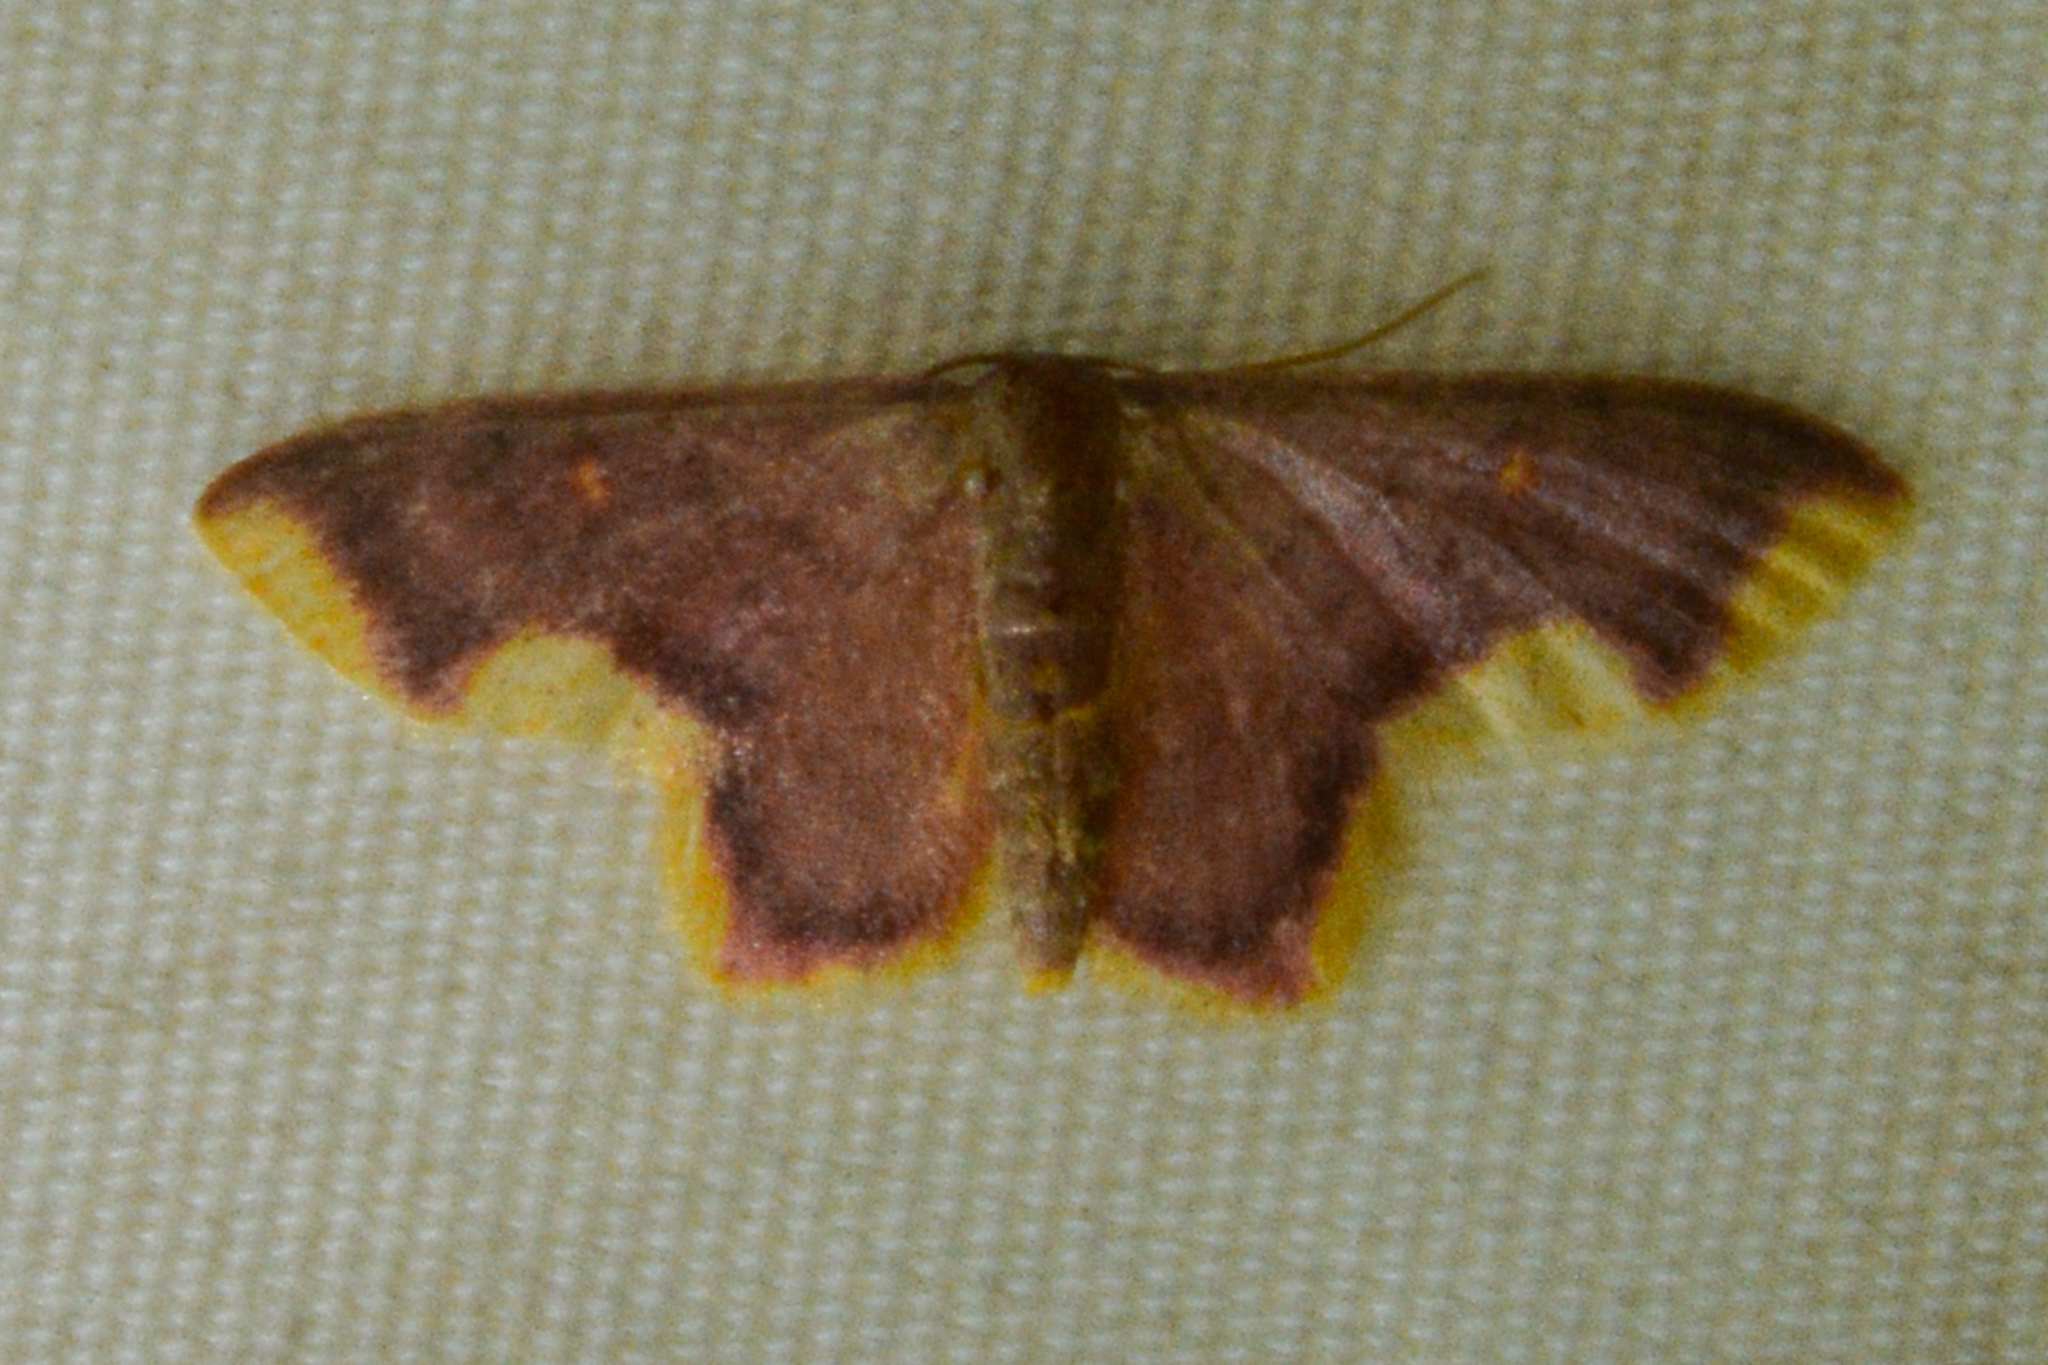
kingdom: Animalia
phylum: Arthropoda
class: Insecta
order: Lepidoptera
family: Geometridae
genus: Lophosis
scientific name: Lophosis labeculata
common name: Stained lophosis moth
